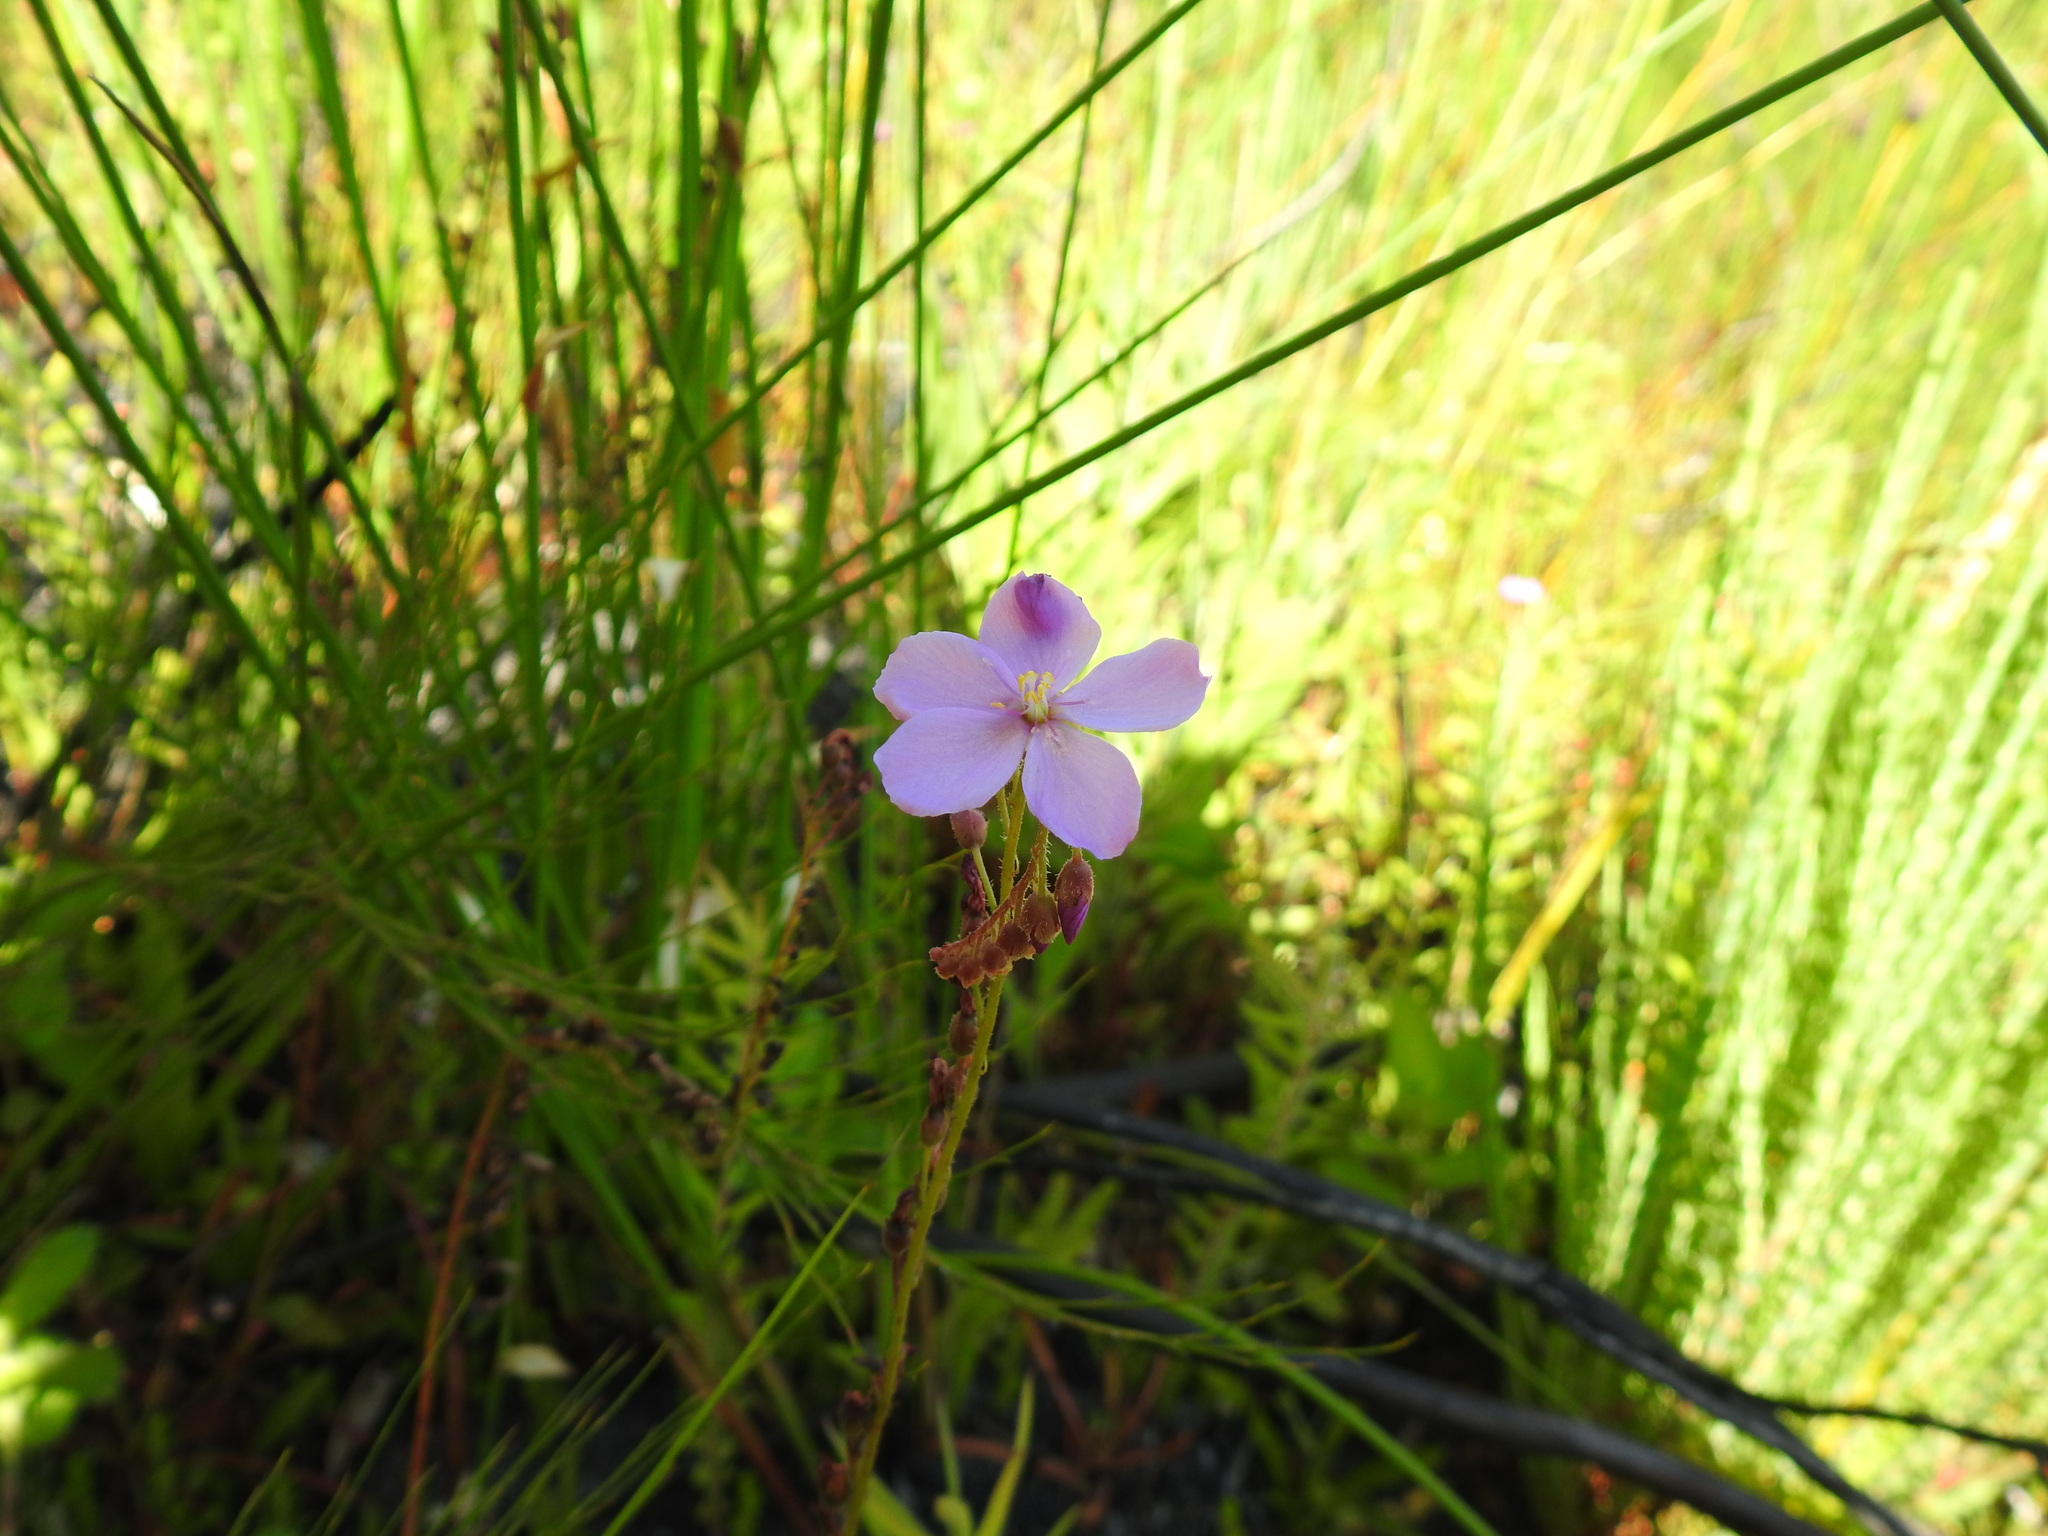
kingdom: Plantae
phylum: Tracheophyta
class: Magnoliopsida
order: Caryophyllales
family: Droseraceae
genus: Drosera
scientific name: Drosera capensis
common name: Cape sundew
